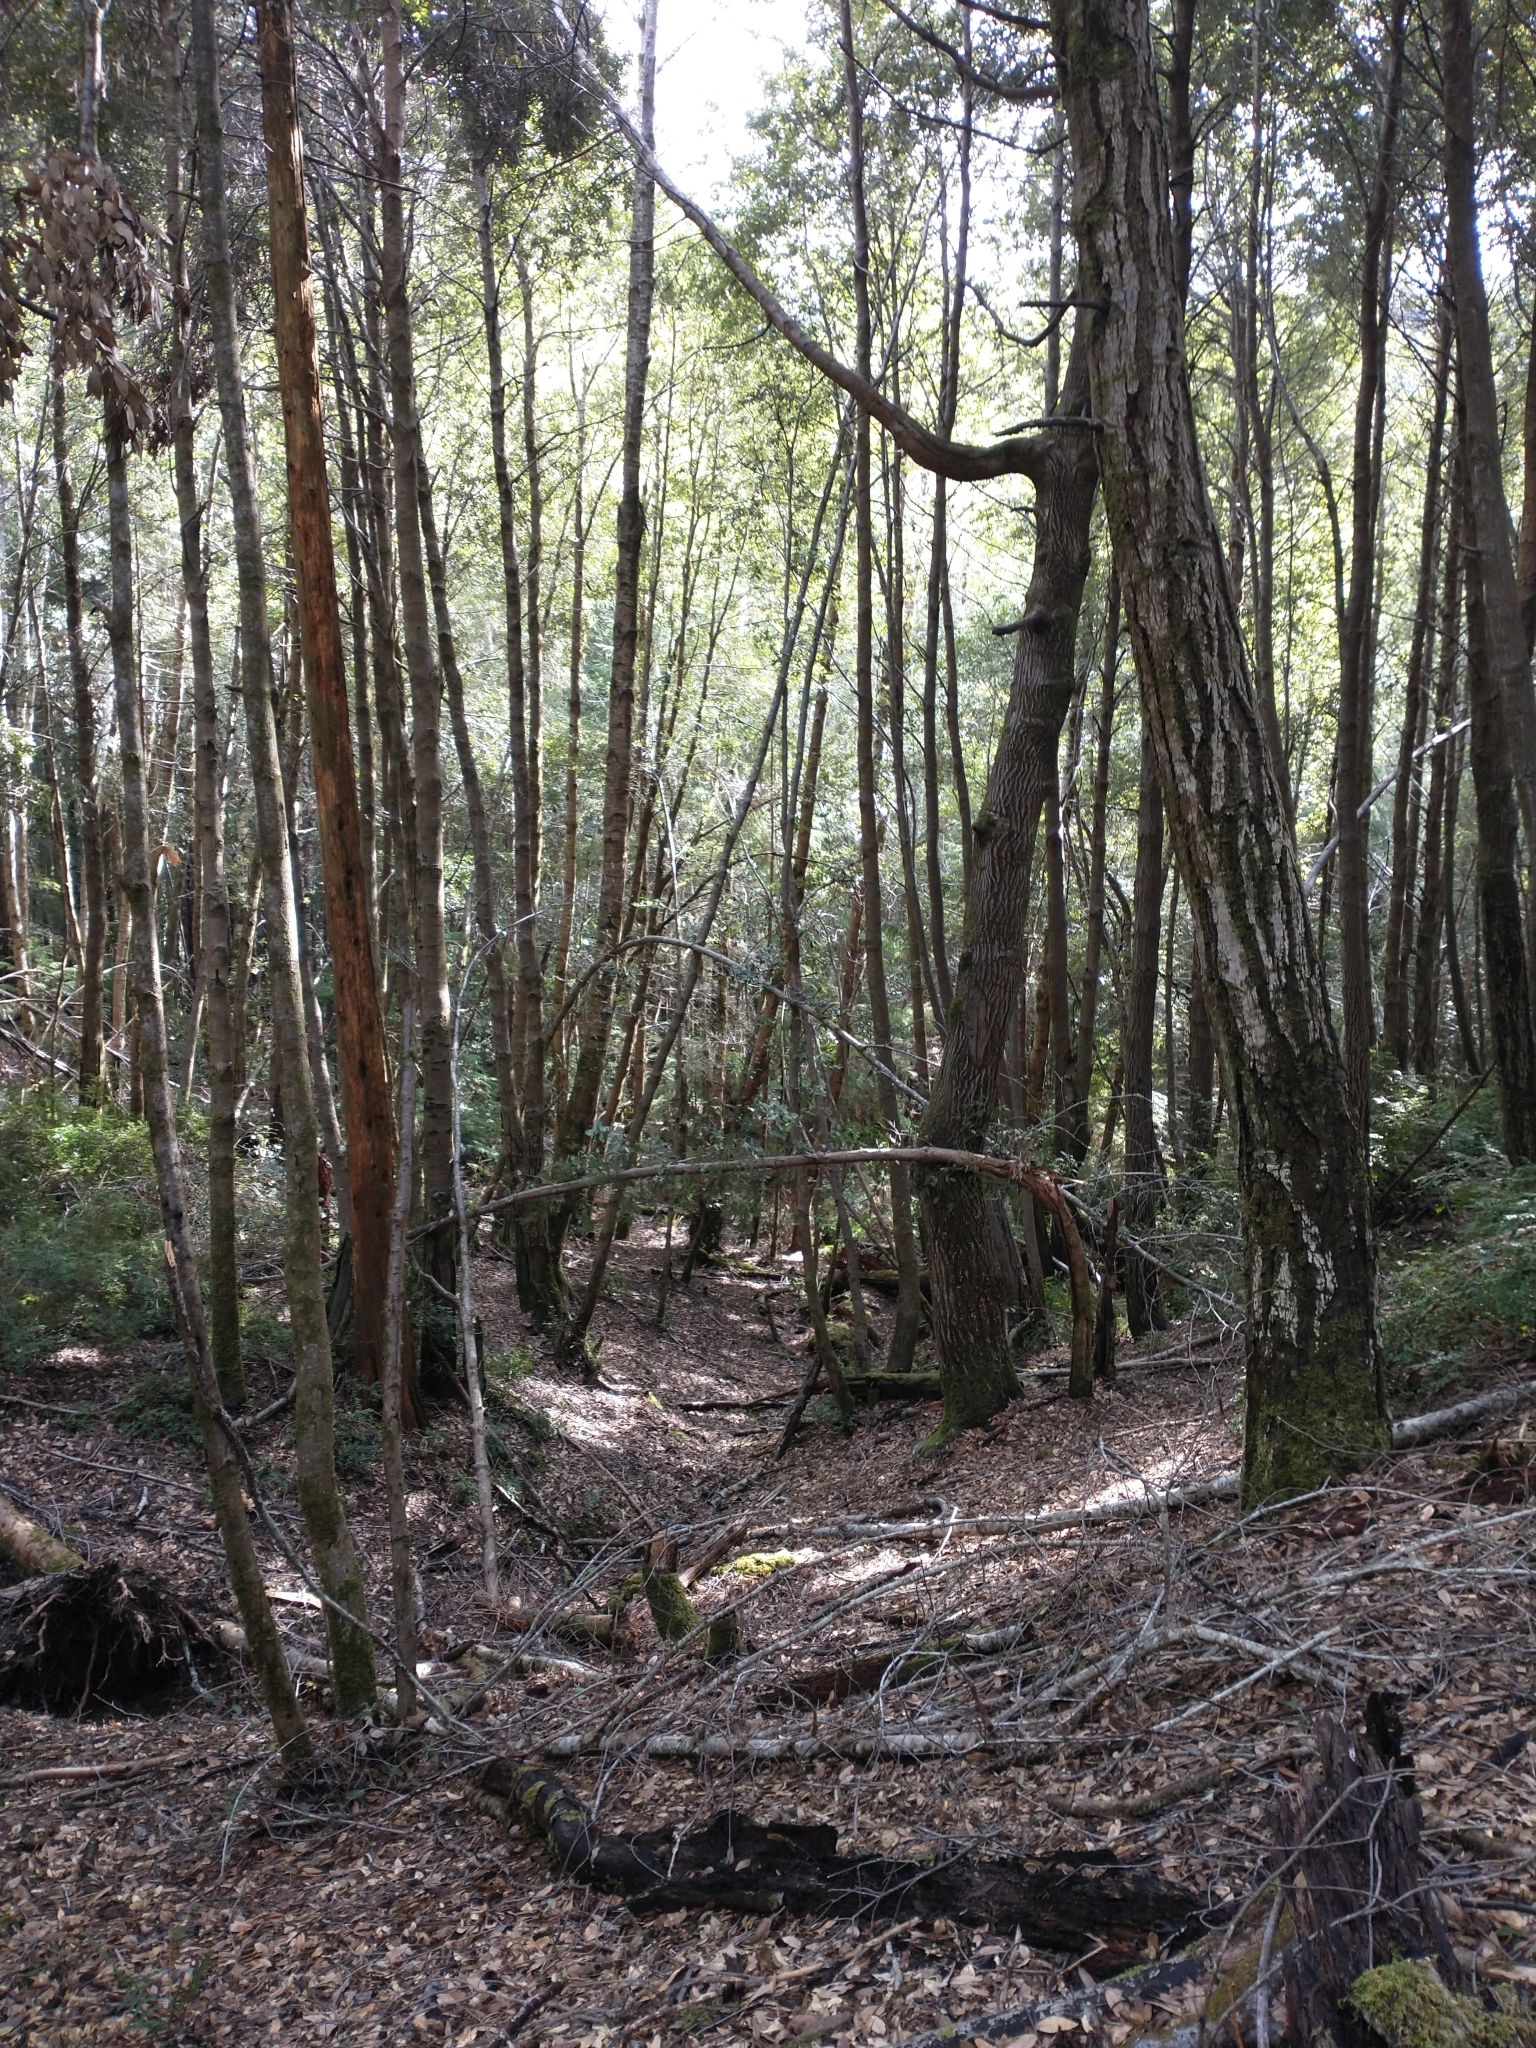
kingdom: Plantae
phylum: Tracheophyta
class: Magnoliopsida
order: Ericales
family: Ericaceae
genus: Vaccinium
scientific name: Vaccinium ovatum
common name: California-huckleberry
